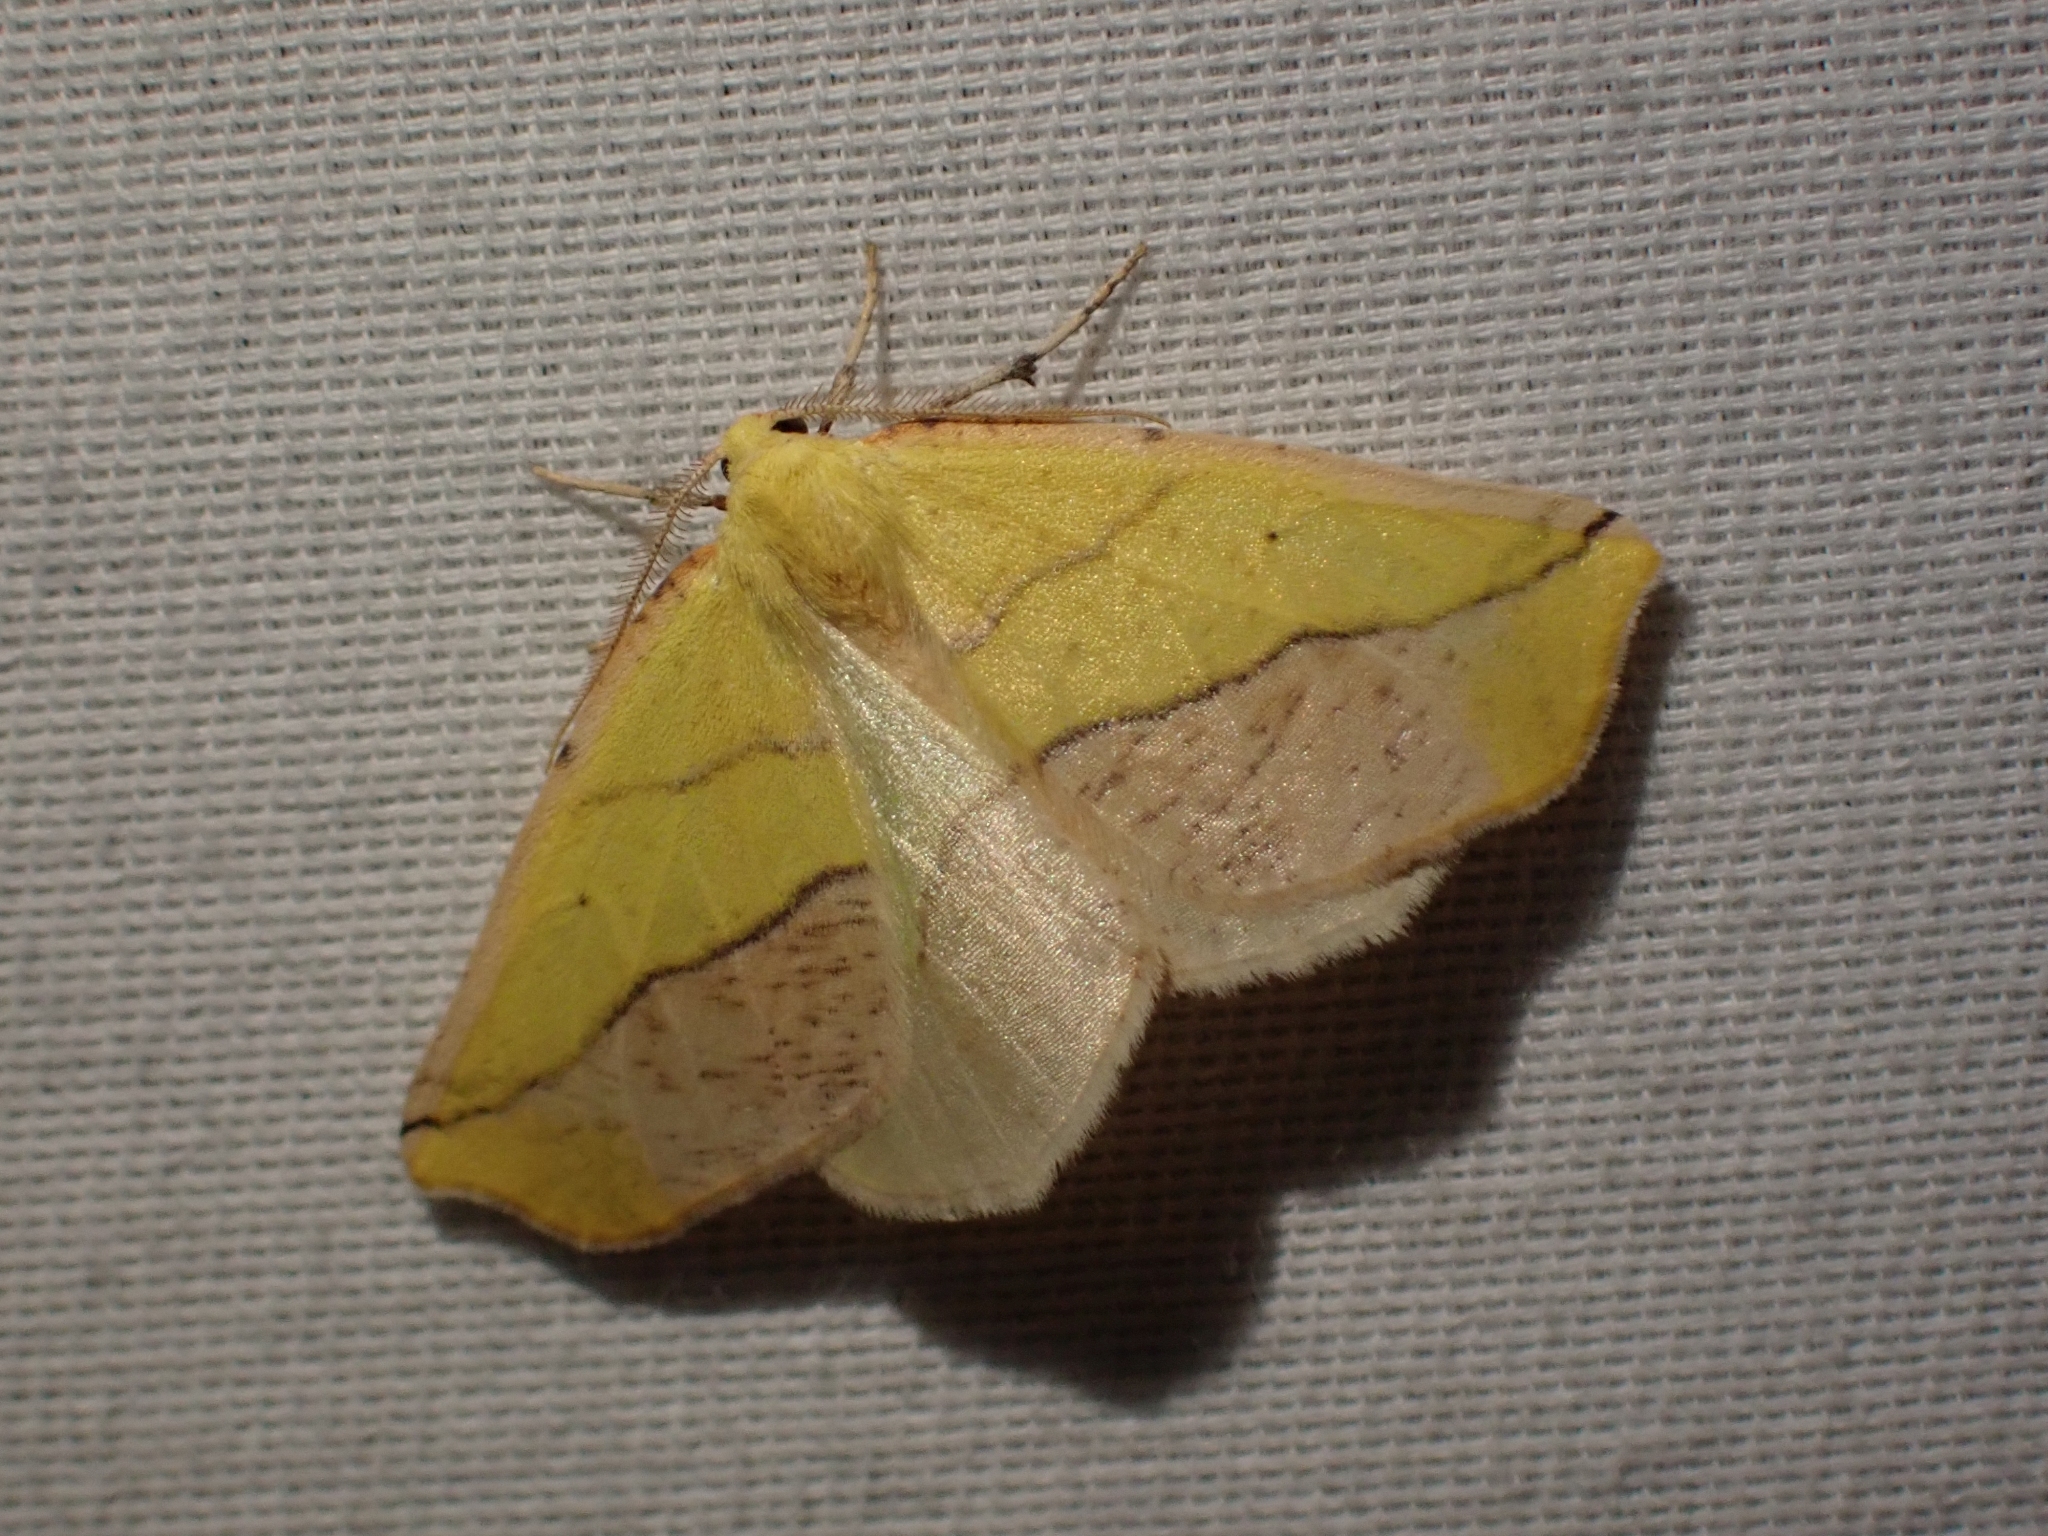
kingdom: Animalia
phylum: Arthropoda
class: Insecta
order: Lepidoptera
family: Geometridae
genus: Sicya
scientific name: Sicya macularia
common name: Sharp-lined yellow
